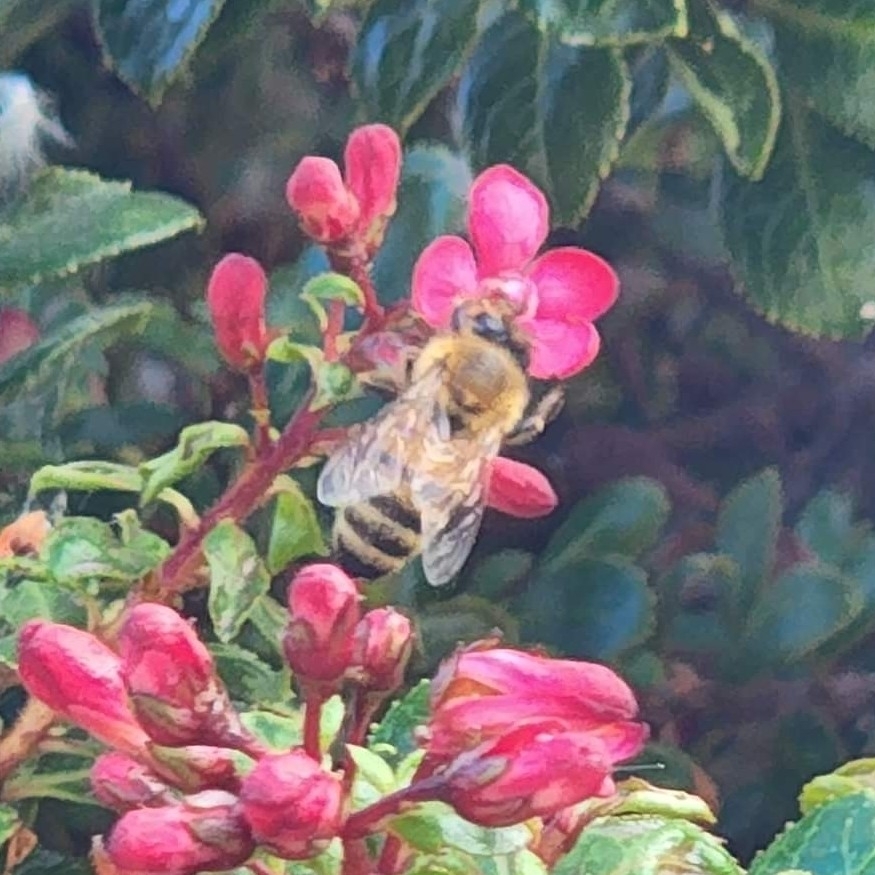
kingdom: Animalia
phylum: Arthropoda
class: Insecta
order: Hymenoptera
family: Apidae
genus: Apis
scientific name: Apis mellifera
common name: Honey bee
